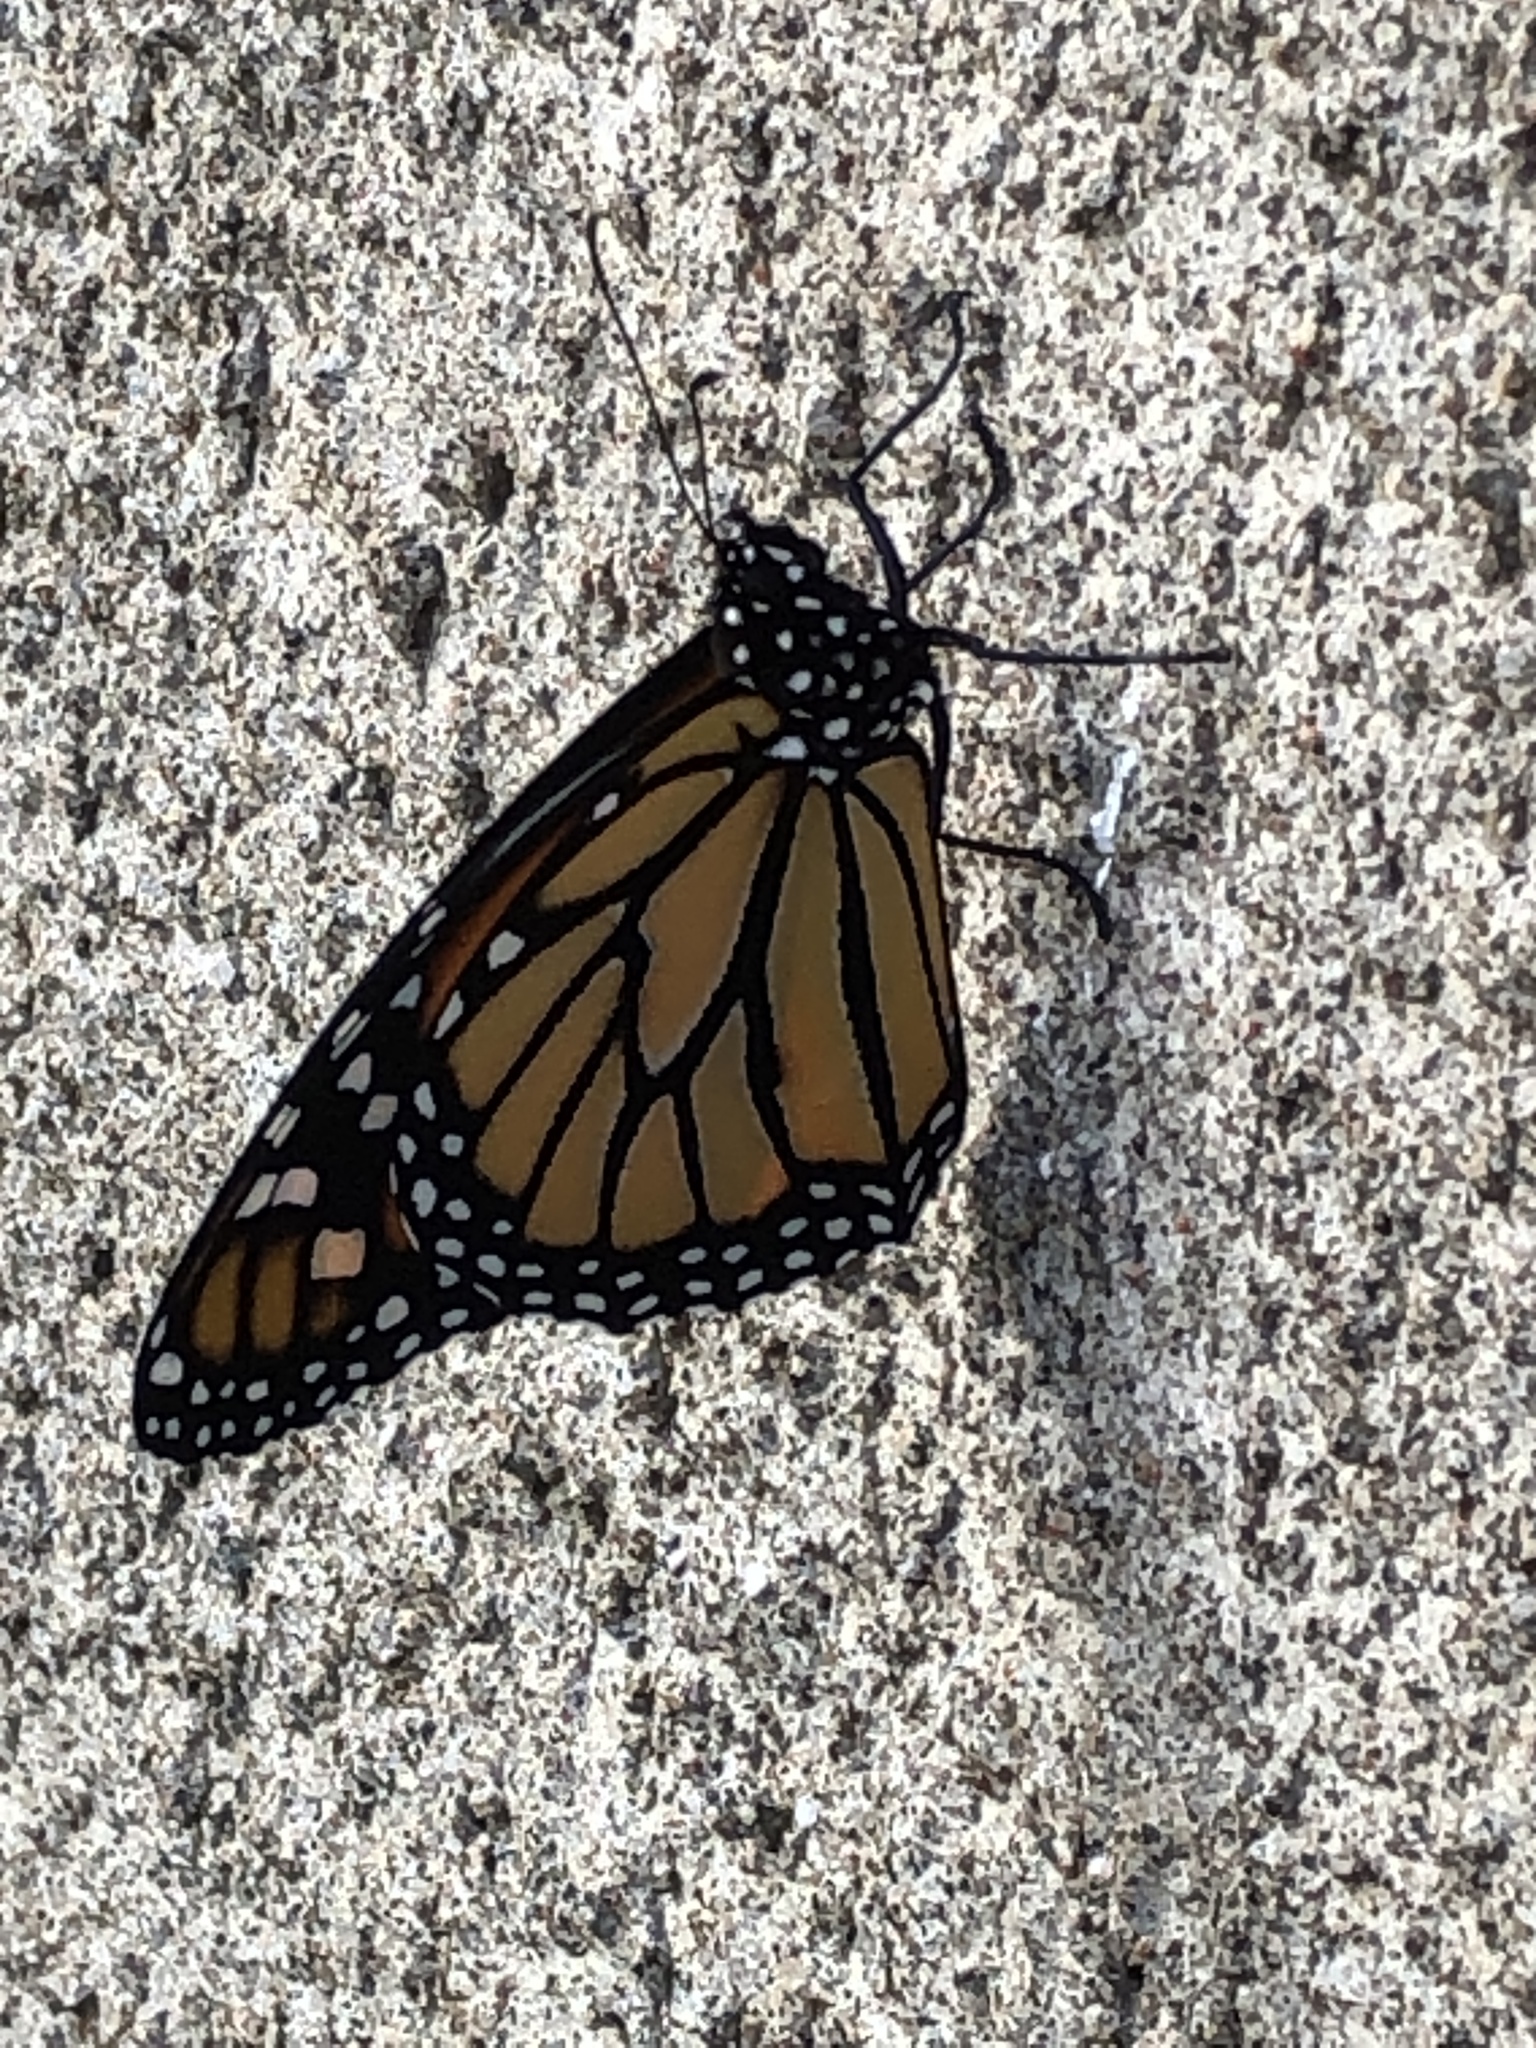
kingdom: Animalia
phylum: Arthropoda
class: Insecta
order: Lepidoptera
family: Nymphalidae
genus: Danaus
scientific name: Danaus plexippus
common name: Monarch
